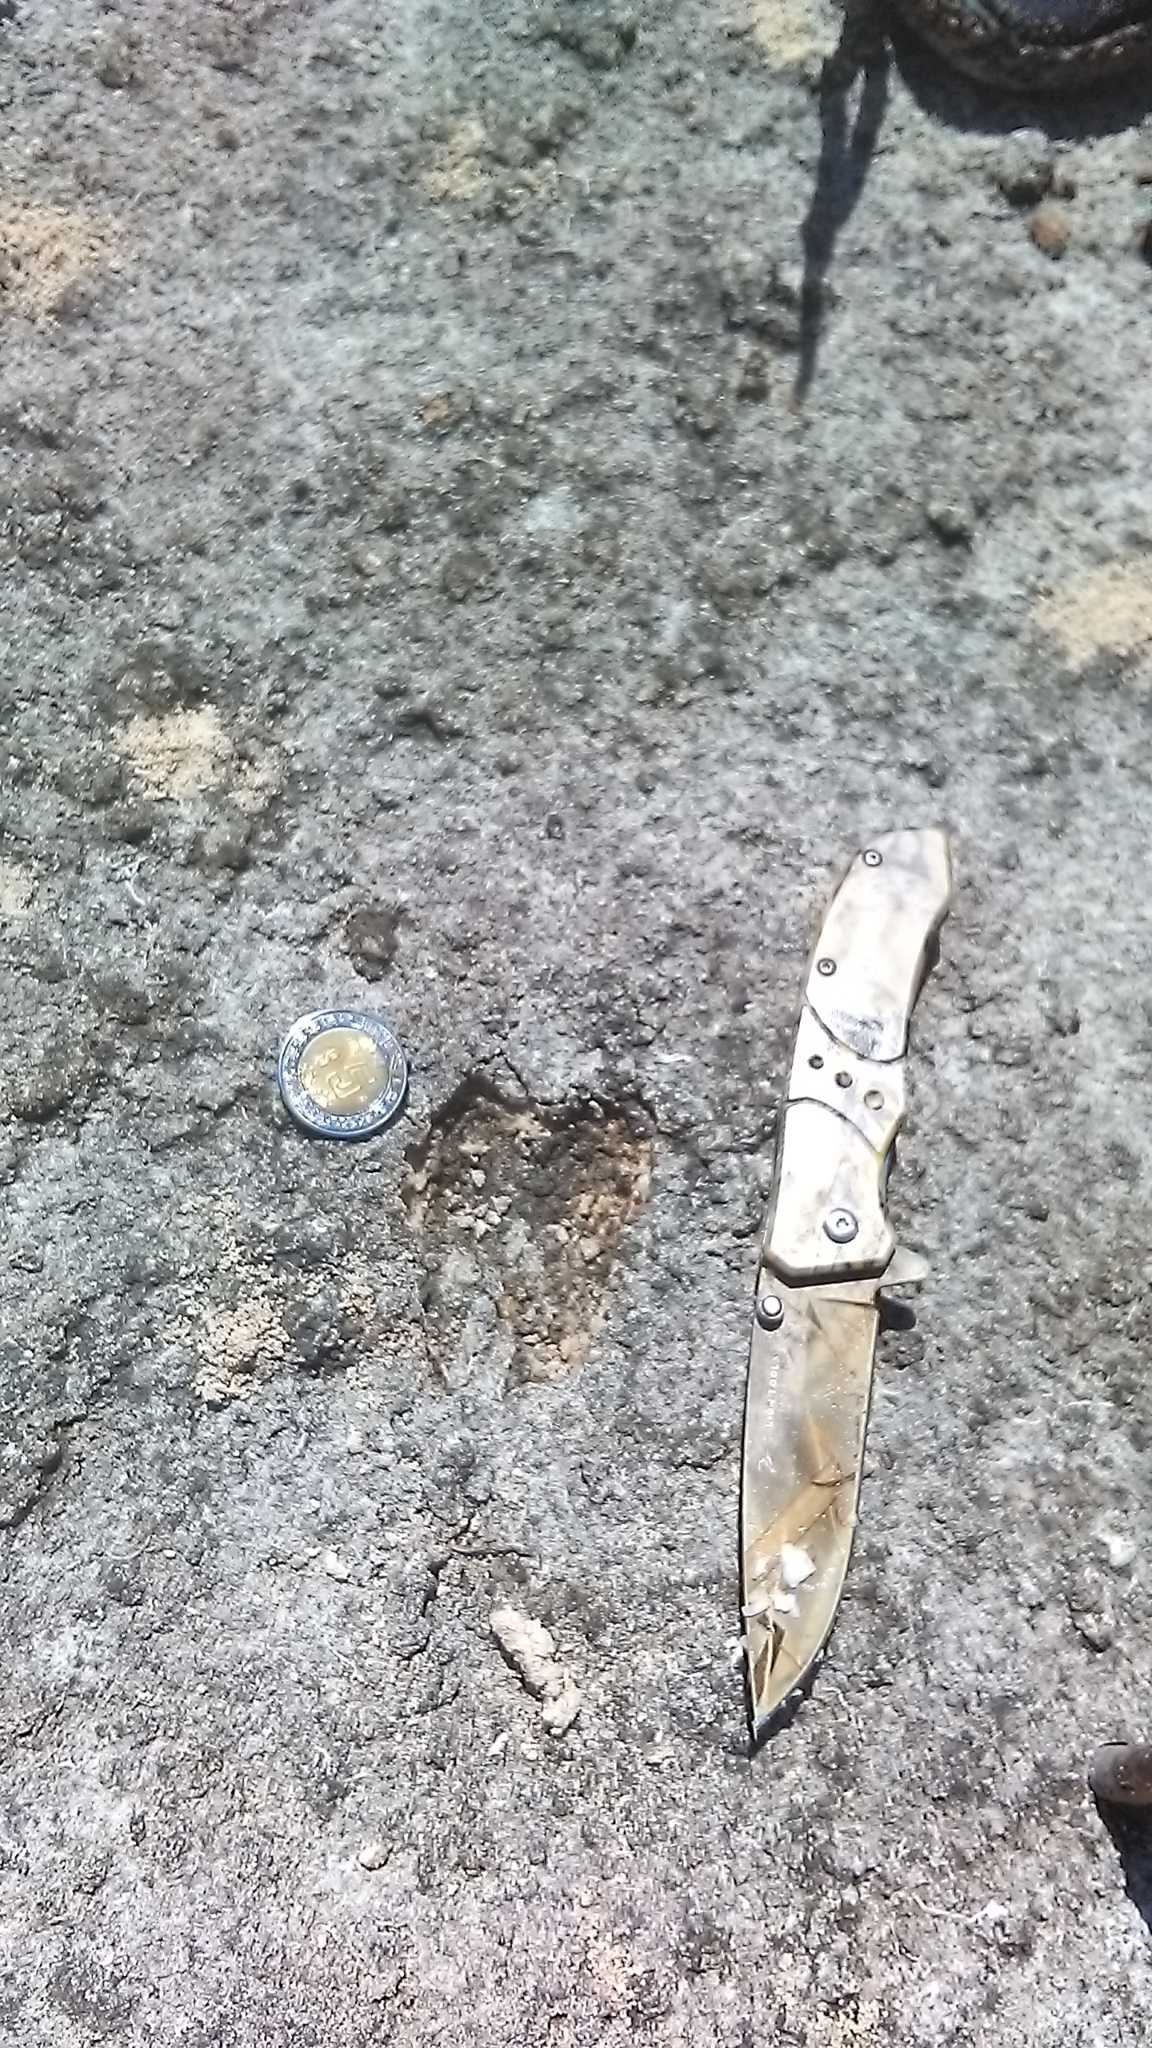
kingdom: Animalia
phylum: Chordata
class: Mammalia
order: Artiodactyla
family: Cervidae
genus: Odocoileus
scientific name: Odocoileus virginianus
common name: White-tailed deer
